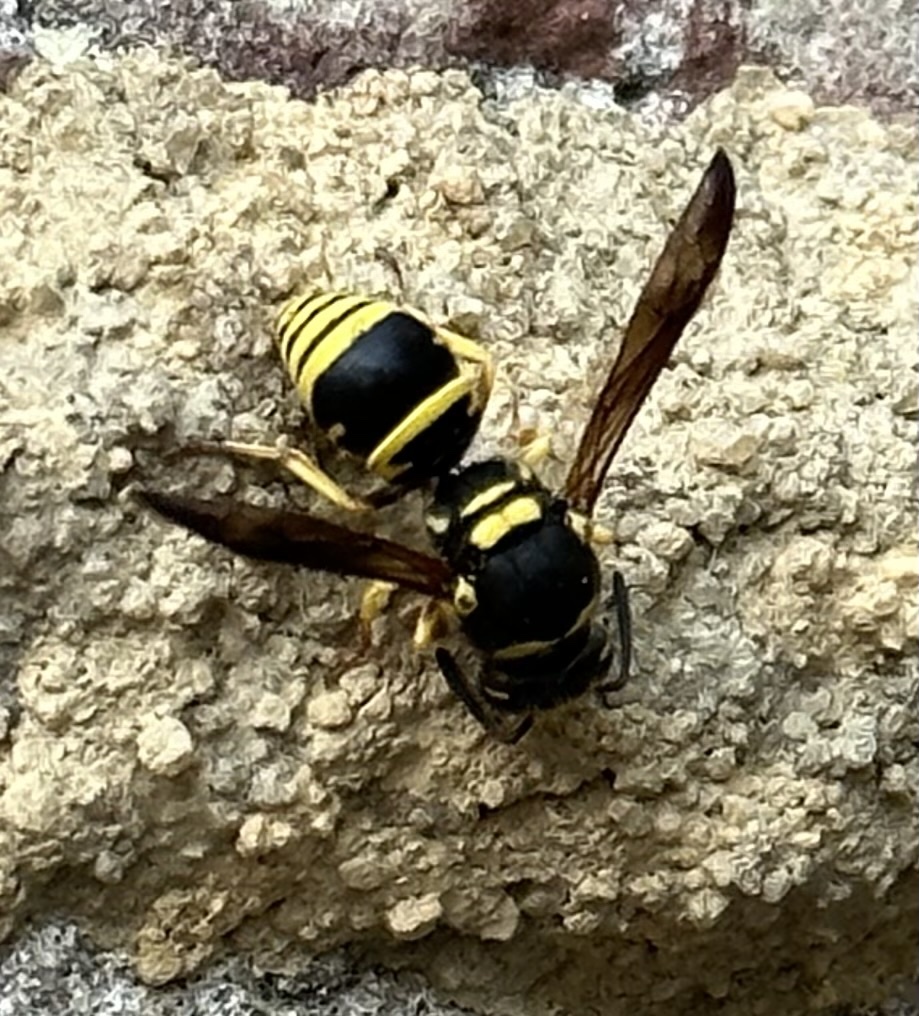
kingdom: Animalia
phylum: Arthropoda
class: Insecta
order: Hymenoptera
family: Vespidae
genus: Ancistrocerus
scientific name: Ancistrocerus lutonidus
